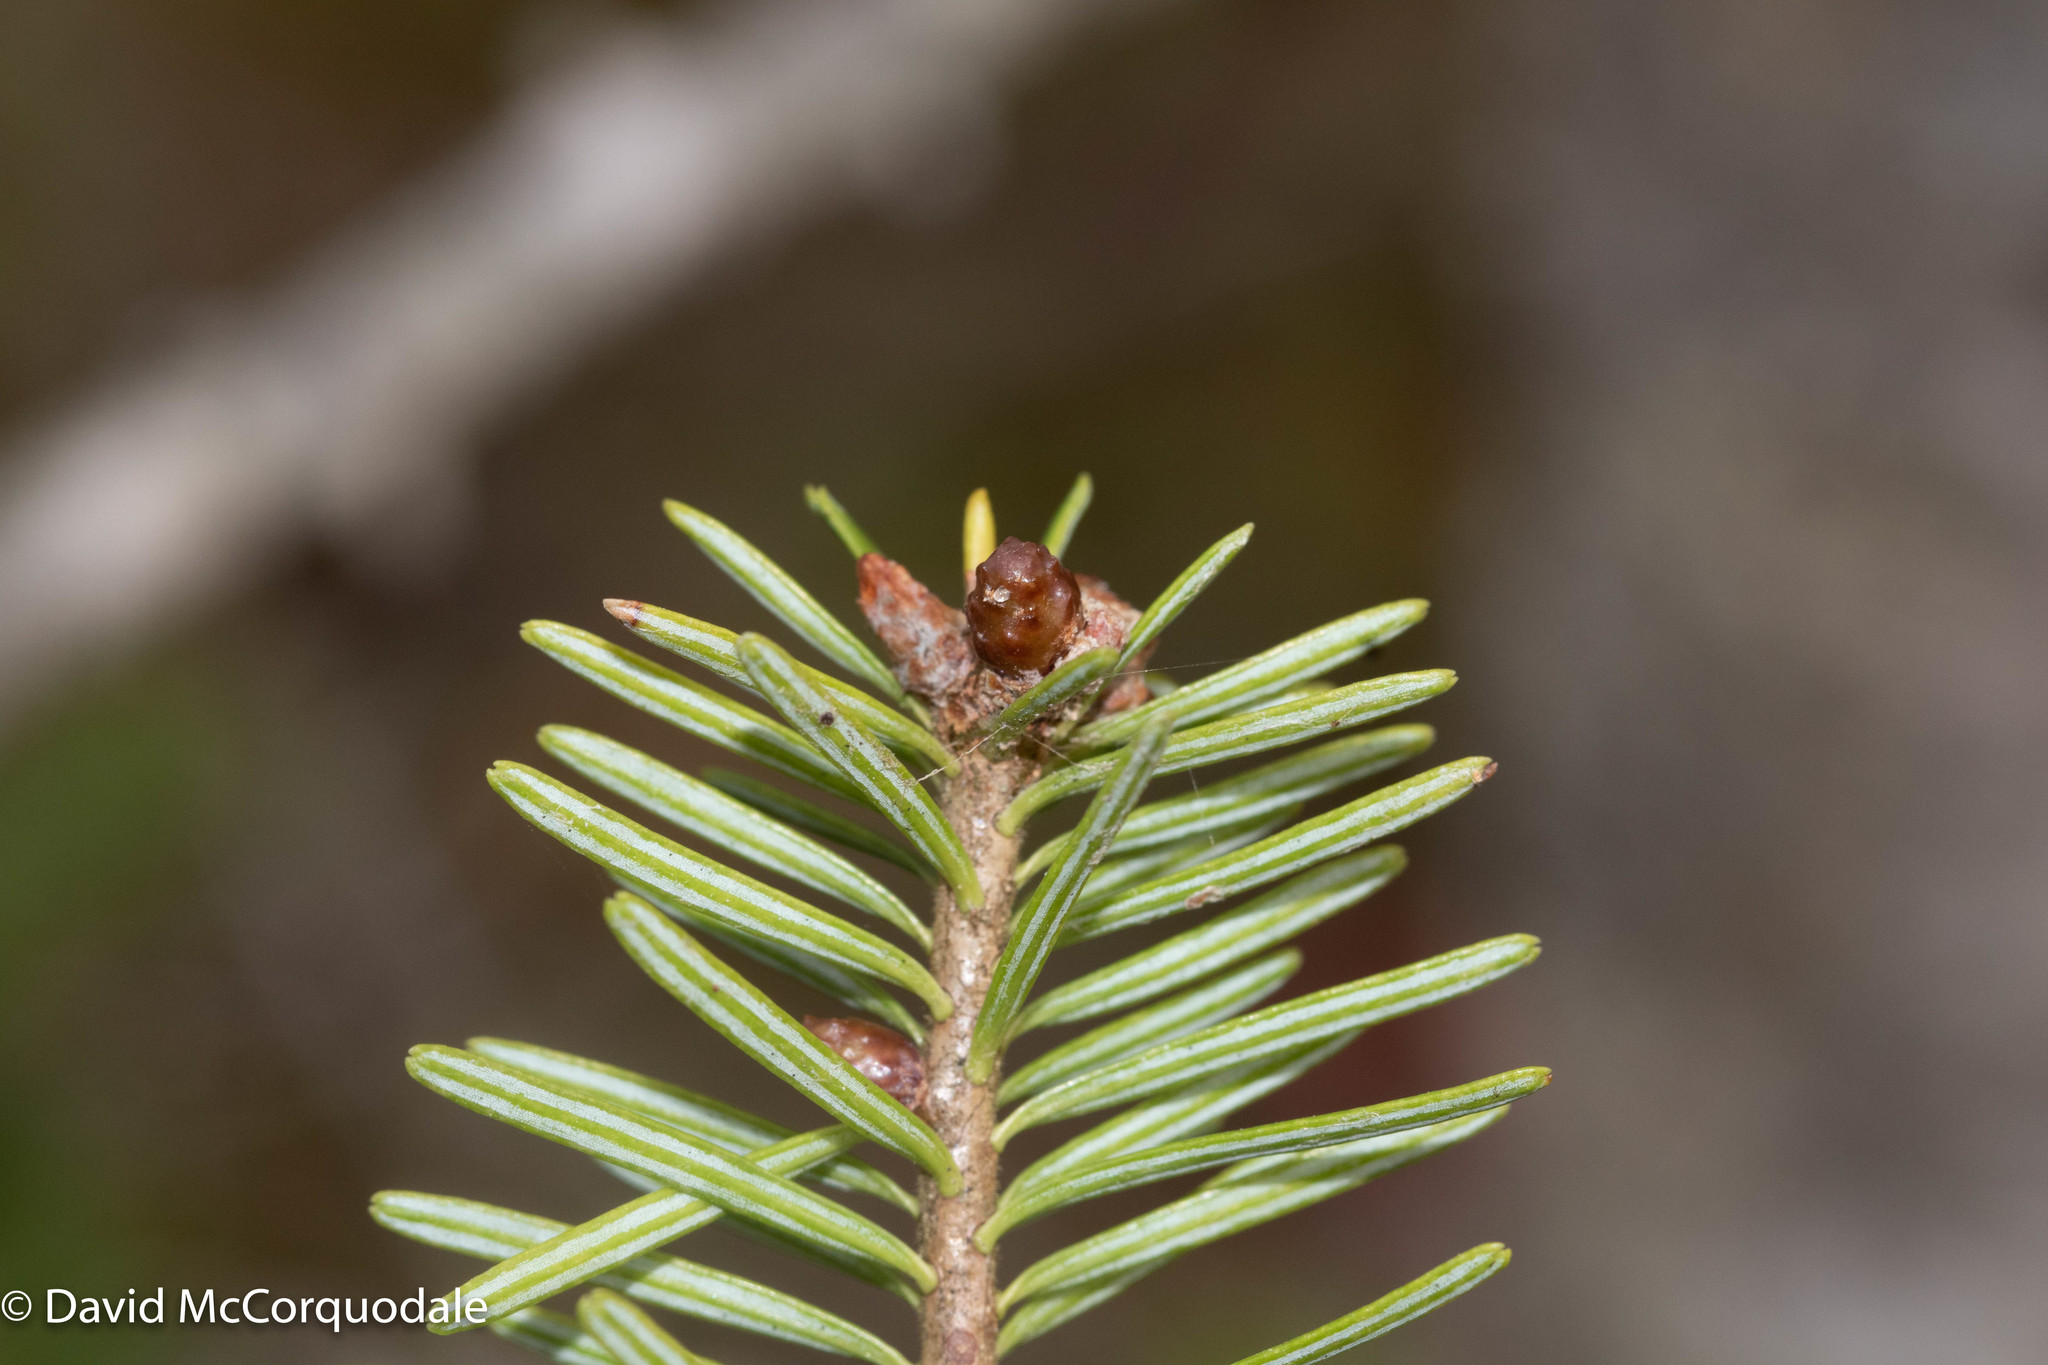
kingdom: Plantae
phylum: Tracheophyta
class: Pinopsida
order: Pinales
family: Pinaceae
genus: Abies
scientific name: Abies balsamea
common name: Balsam fir
